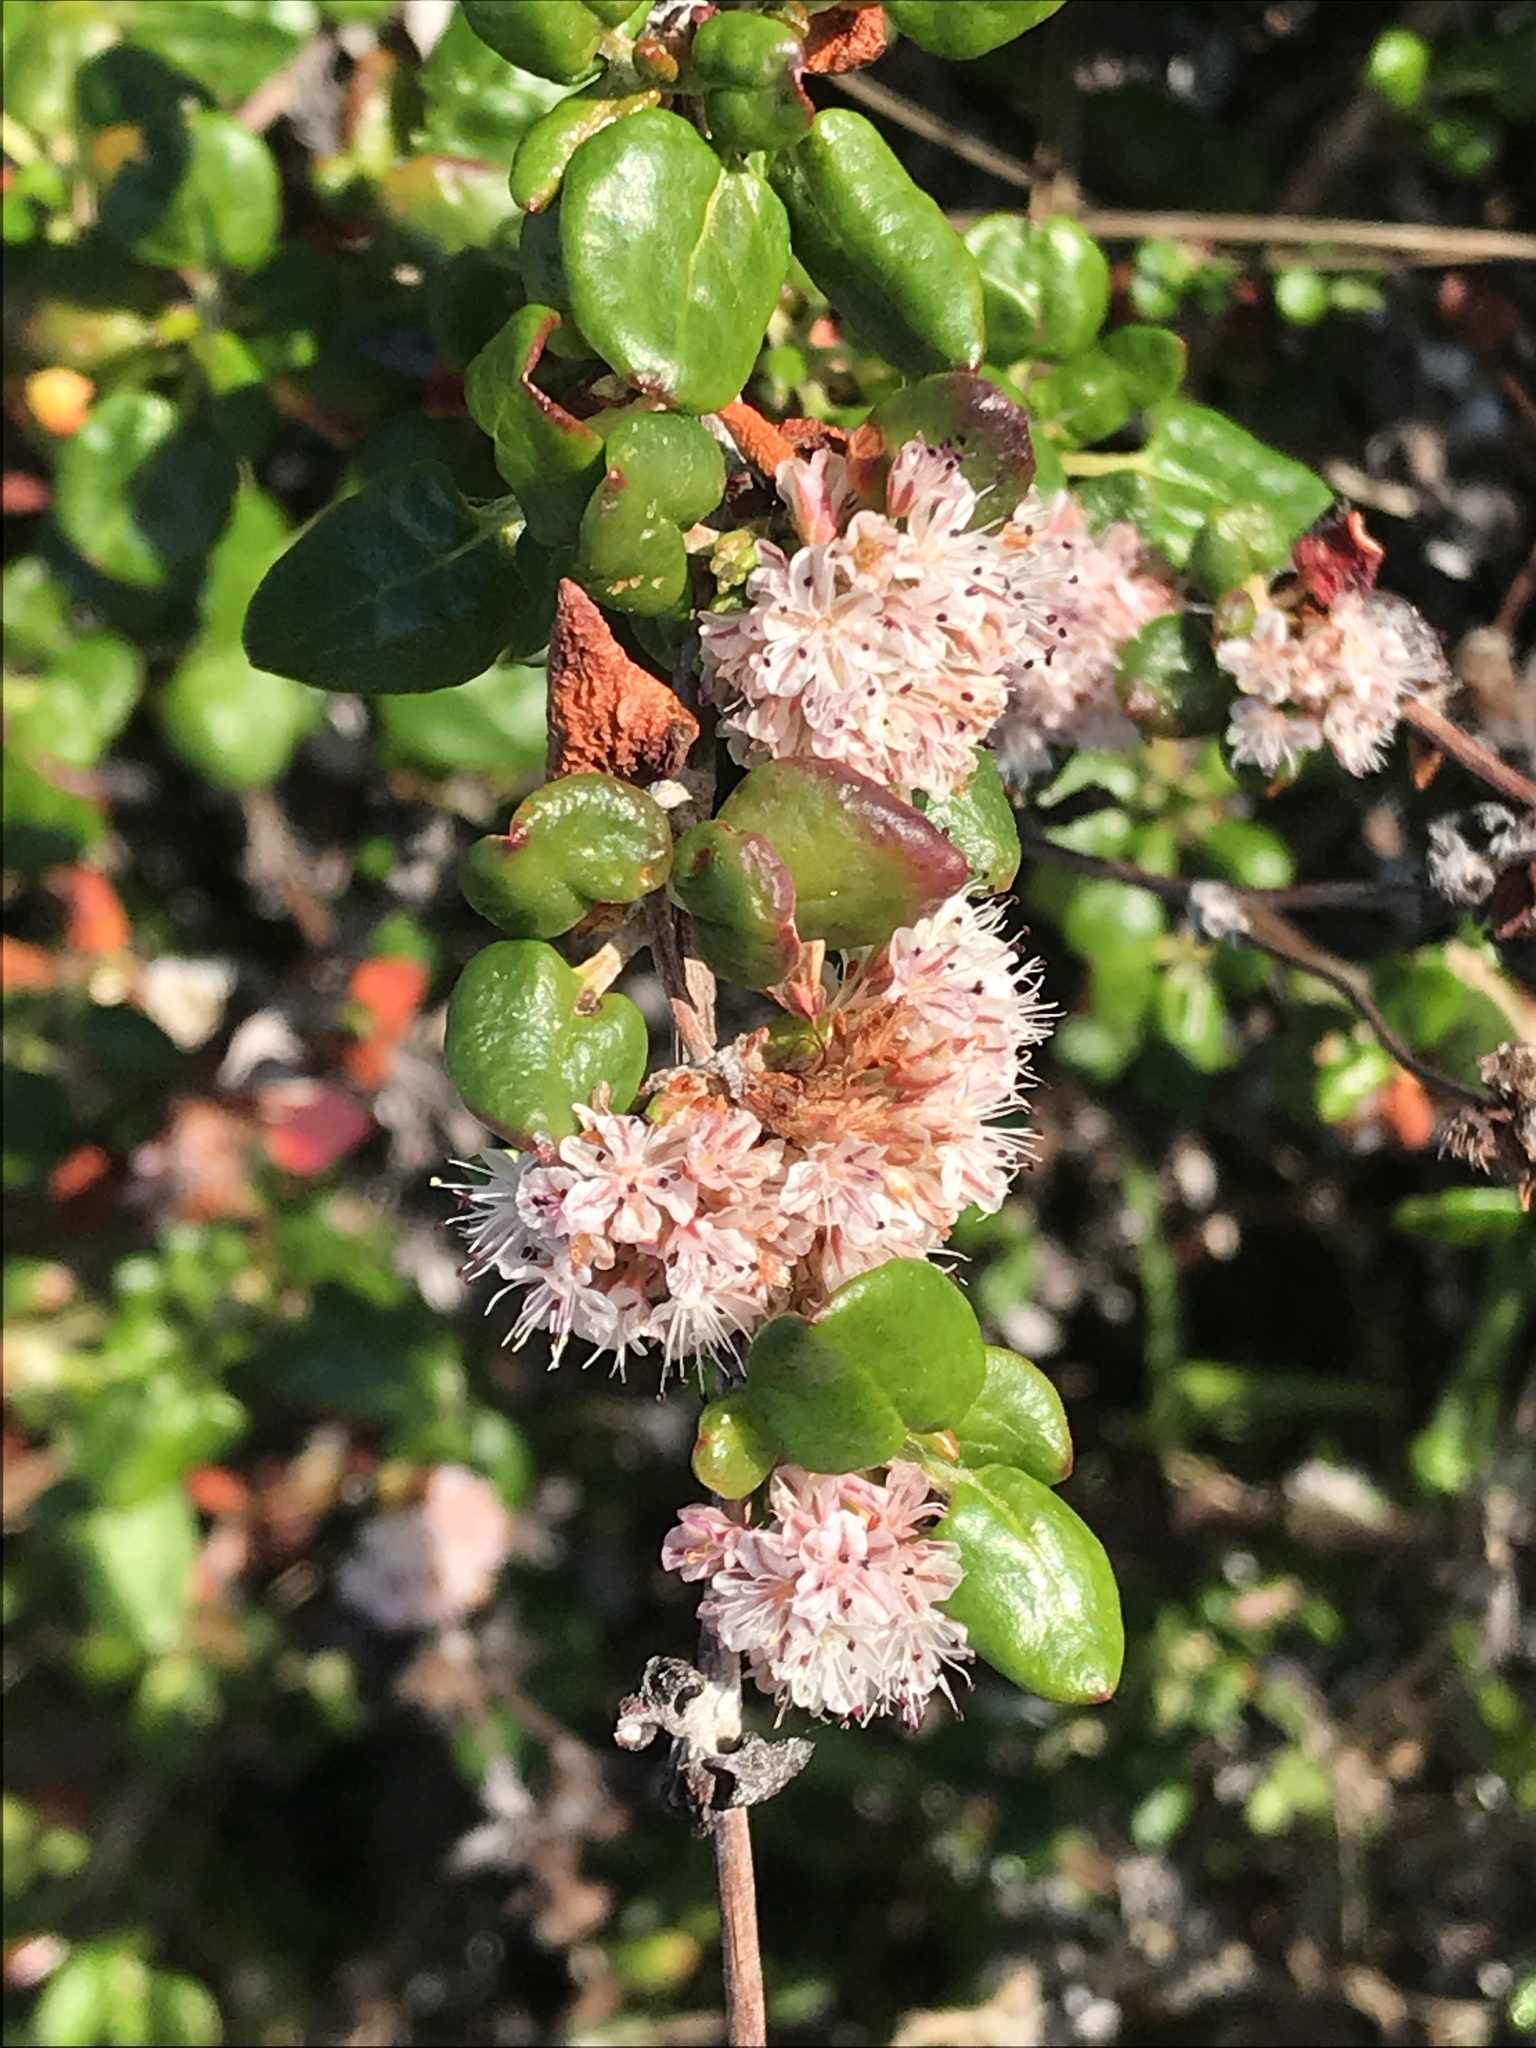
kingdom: Plantae
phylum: Tracheophyta
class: Magnoliopsida
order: Caryophyllales
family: Polygonaceae
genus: Eriogonum
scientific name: Eriogonum parvifolium
